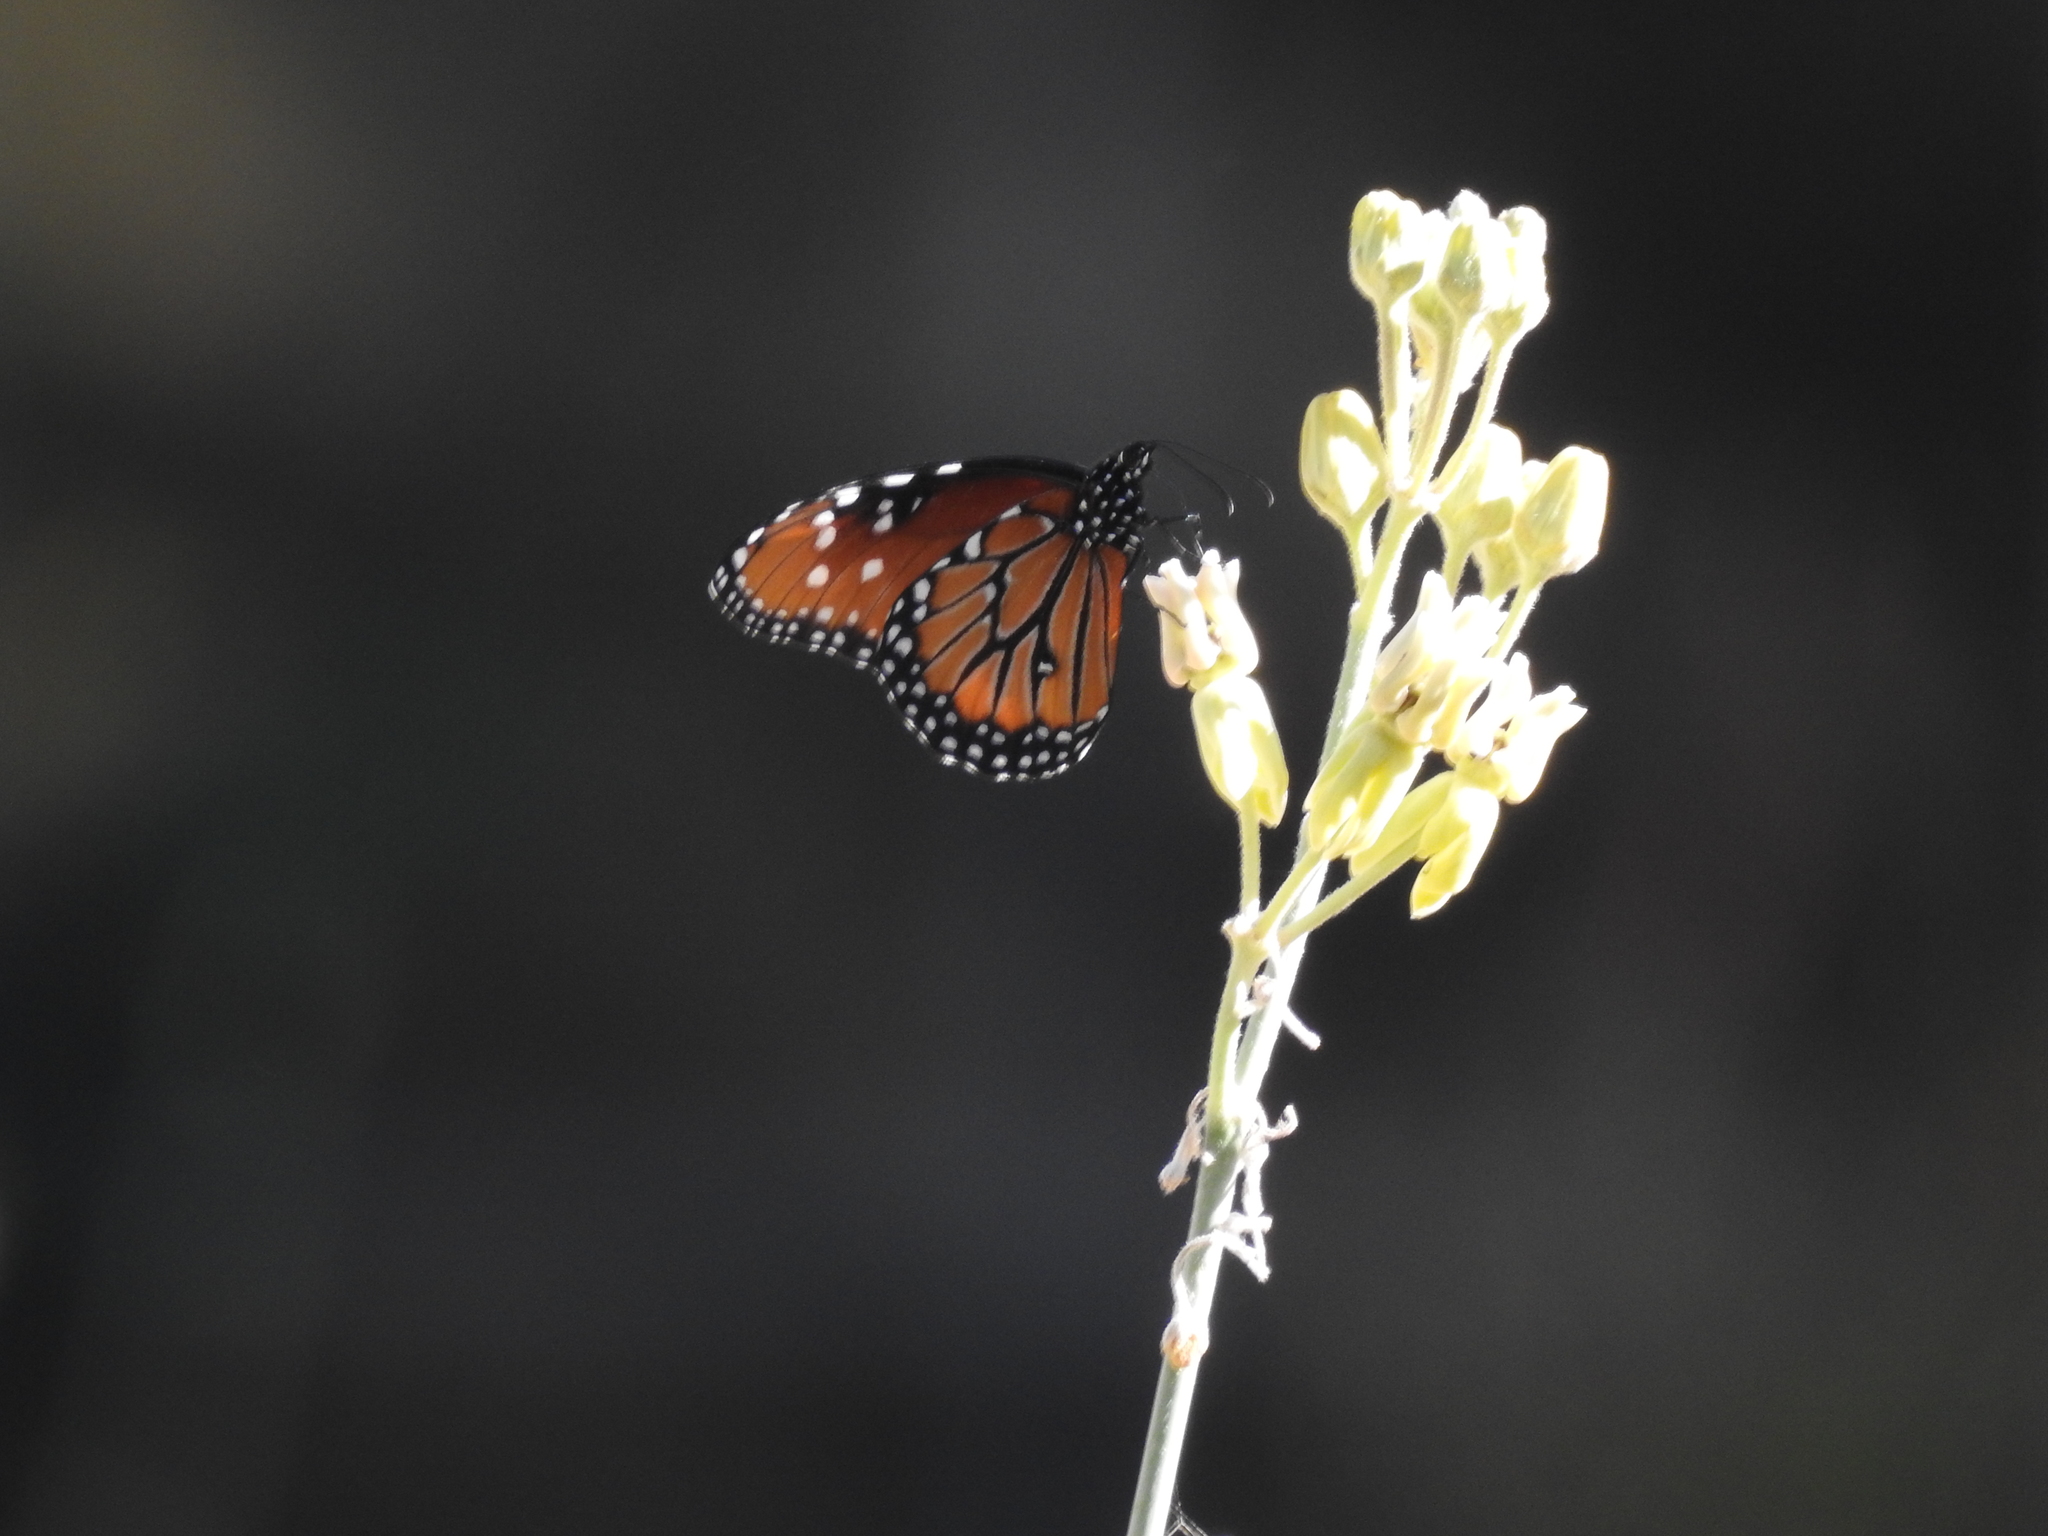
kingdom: Animalia
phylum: Arthropoda
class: Insecta
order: Lepidoptera
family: Nymphalidae
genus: Danaus
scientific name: Danaus gilippus
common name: Queen
